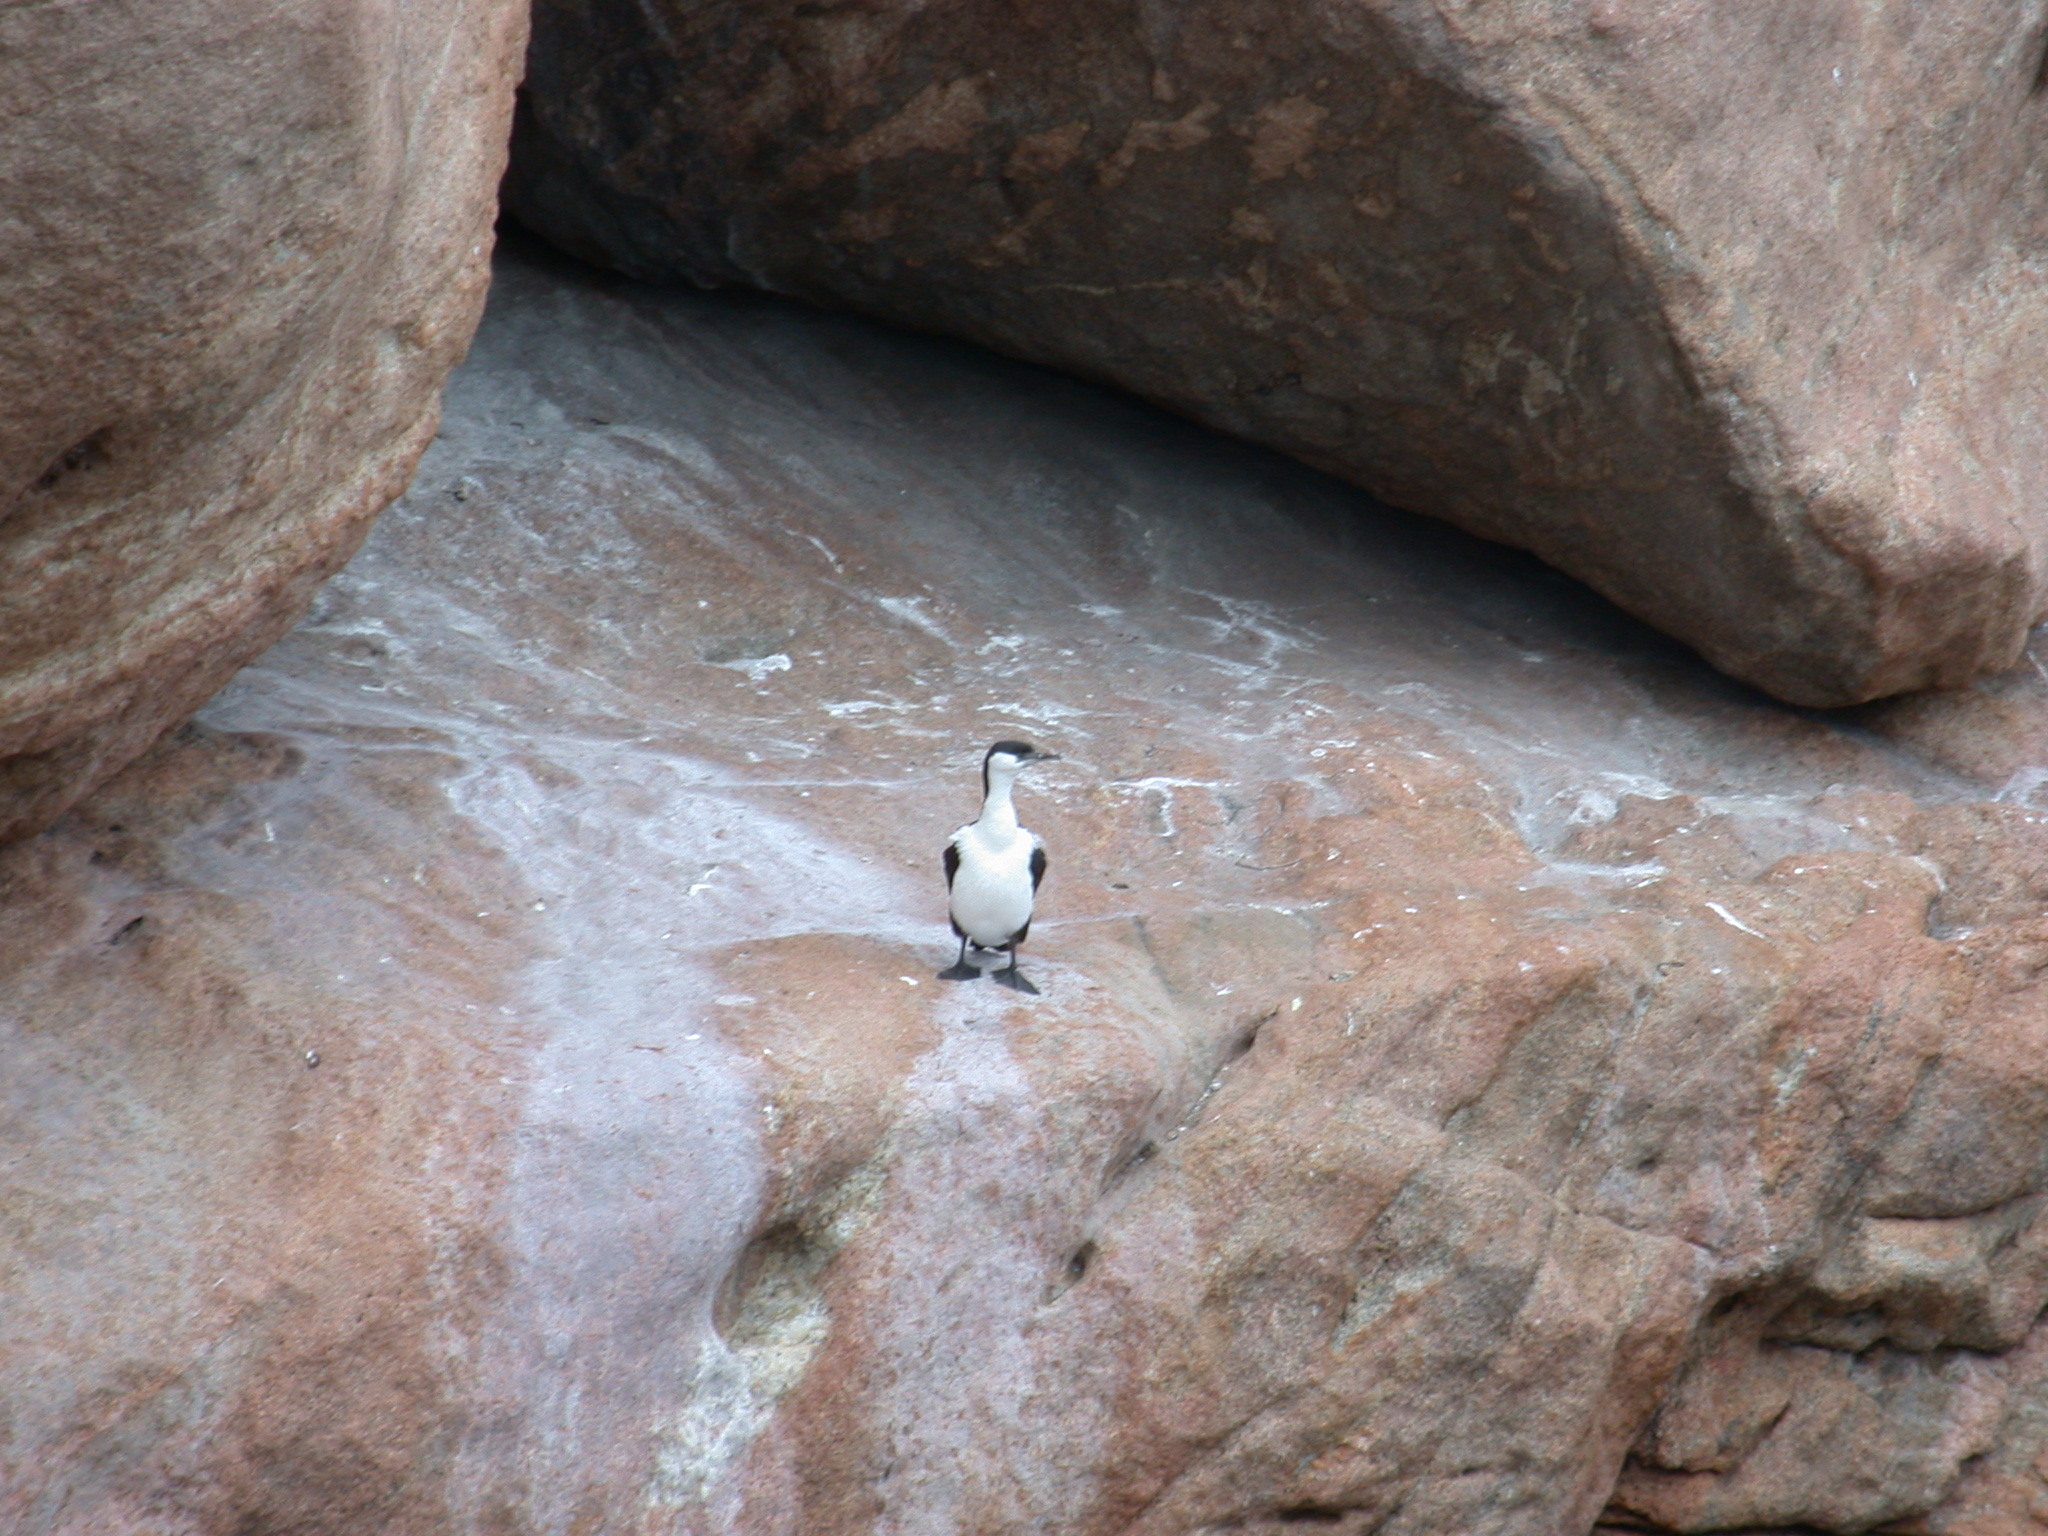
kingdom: Animalia
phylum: Chordata
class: Aves
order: Suliformes
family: Phalacrocoracidae
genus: Phalacrocorax
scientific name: Phalacrocorax fuscescens
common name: Black-faced cormorant
